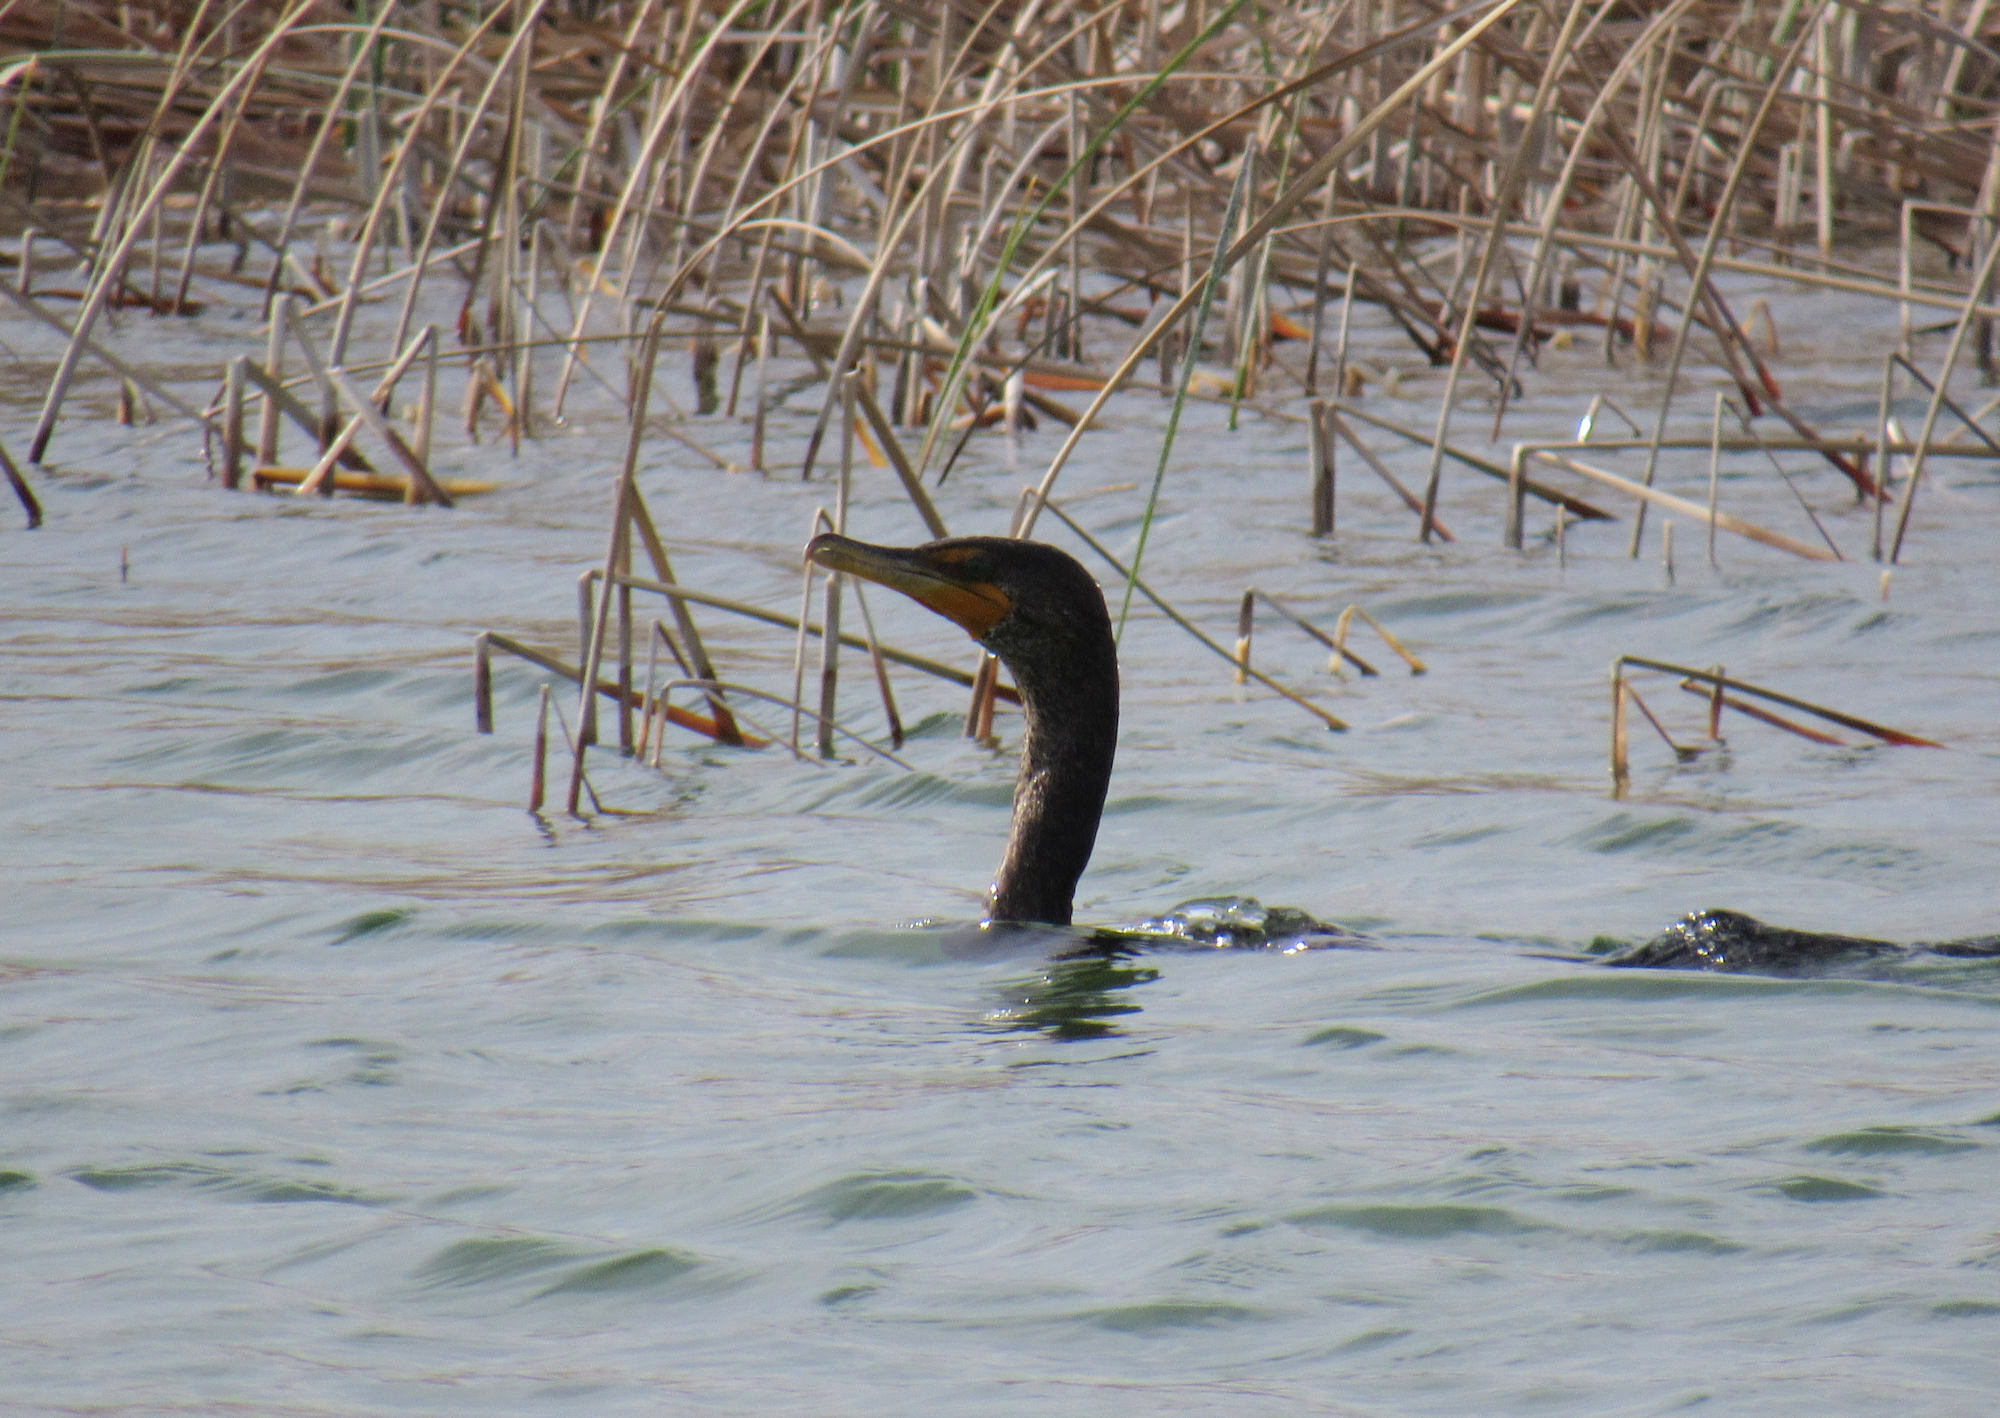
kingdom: Animalia
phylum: Chordata
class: Aves
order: Suliformes
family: Phalacrocoracidae
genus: Phalacrocorax
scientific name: Phalacrocorax auritus
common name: Double-crested cormorant
